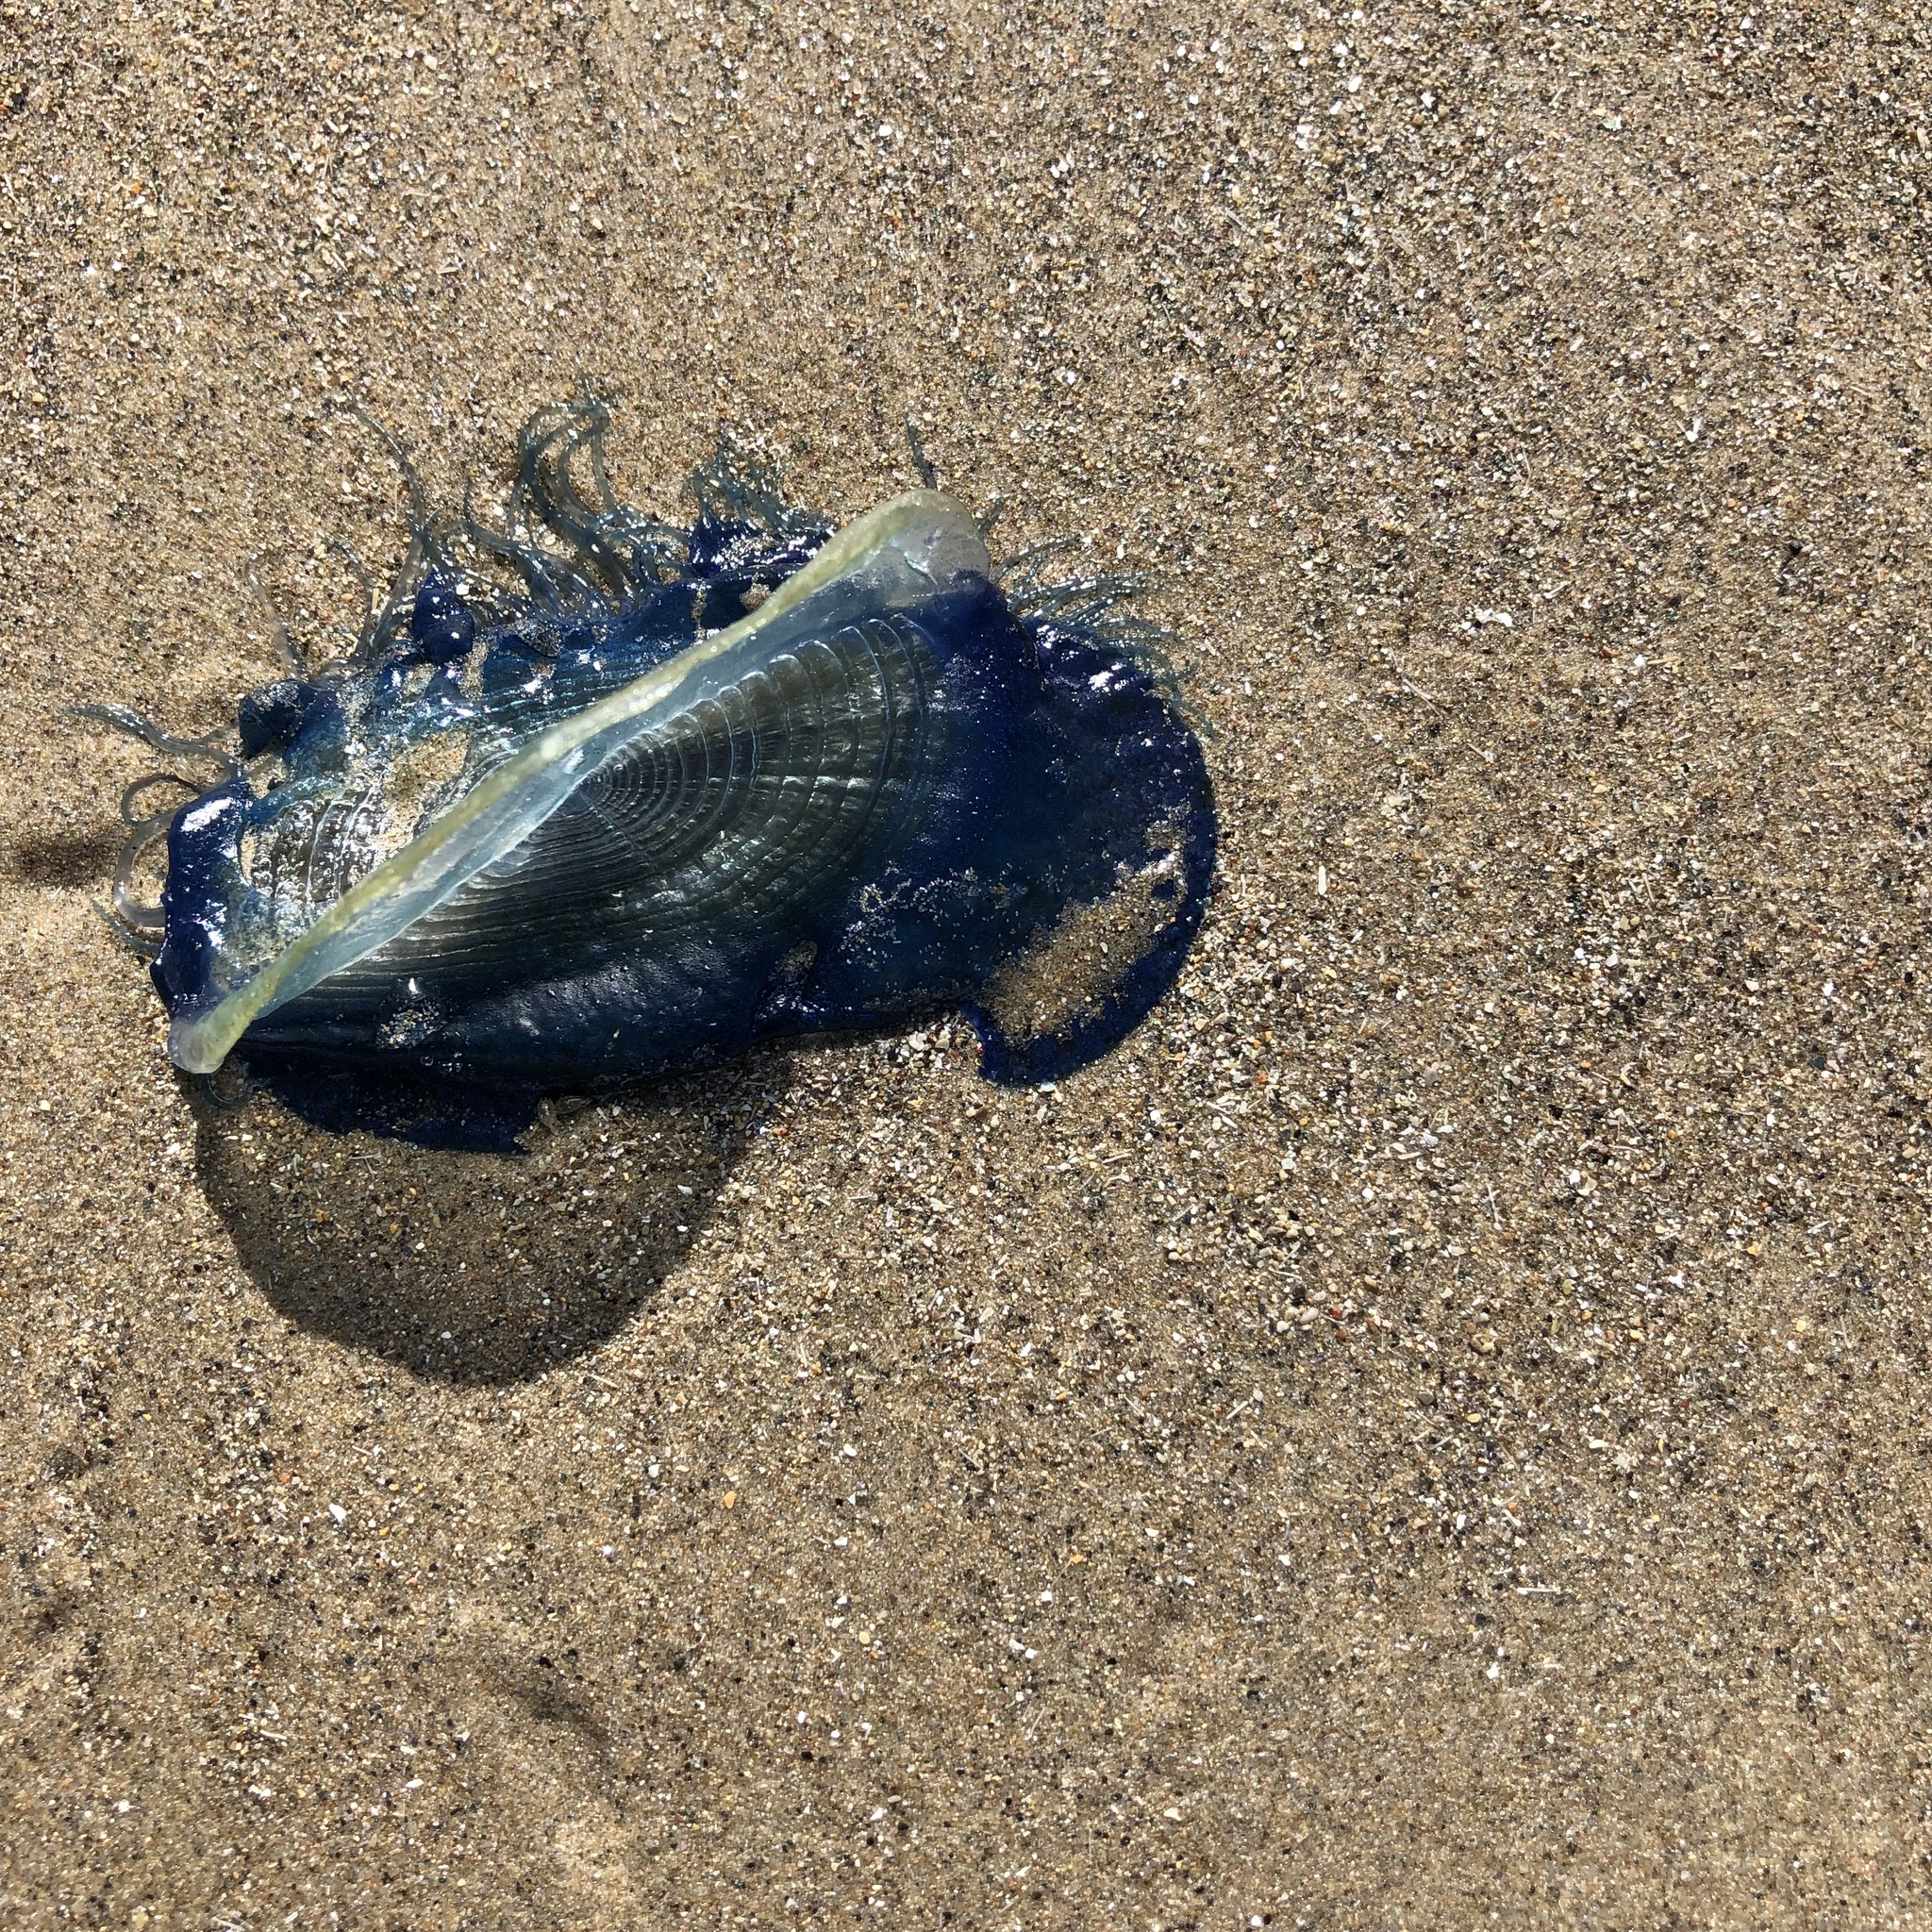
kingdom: Animalia
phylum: Cnidaria
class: Hydrozoa
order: Anthoathecata
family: Porpitidae
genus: Velella
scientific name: Velella velella
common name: By-the-wind-sailor
